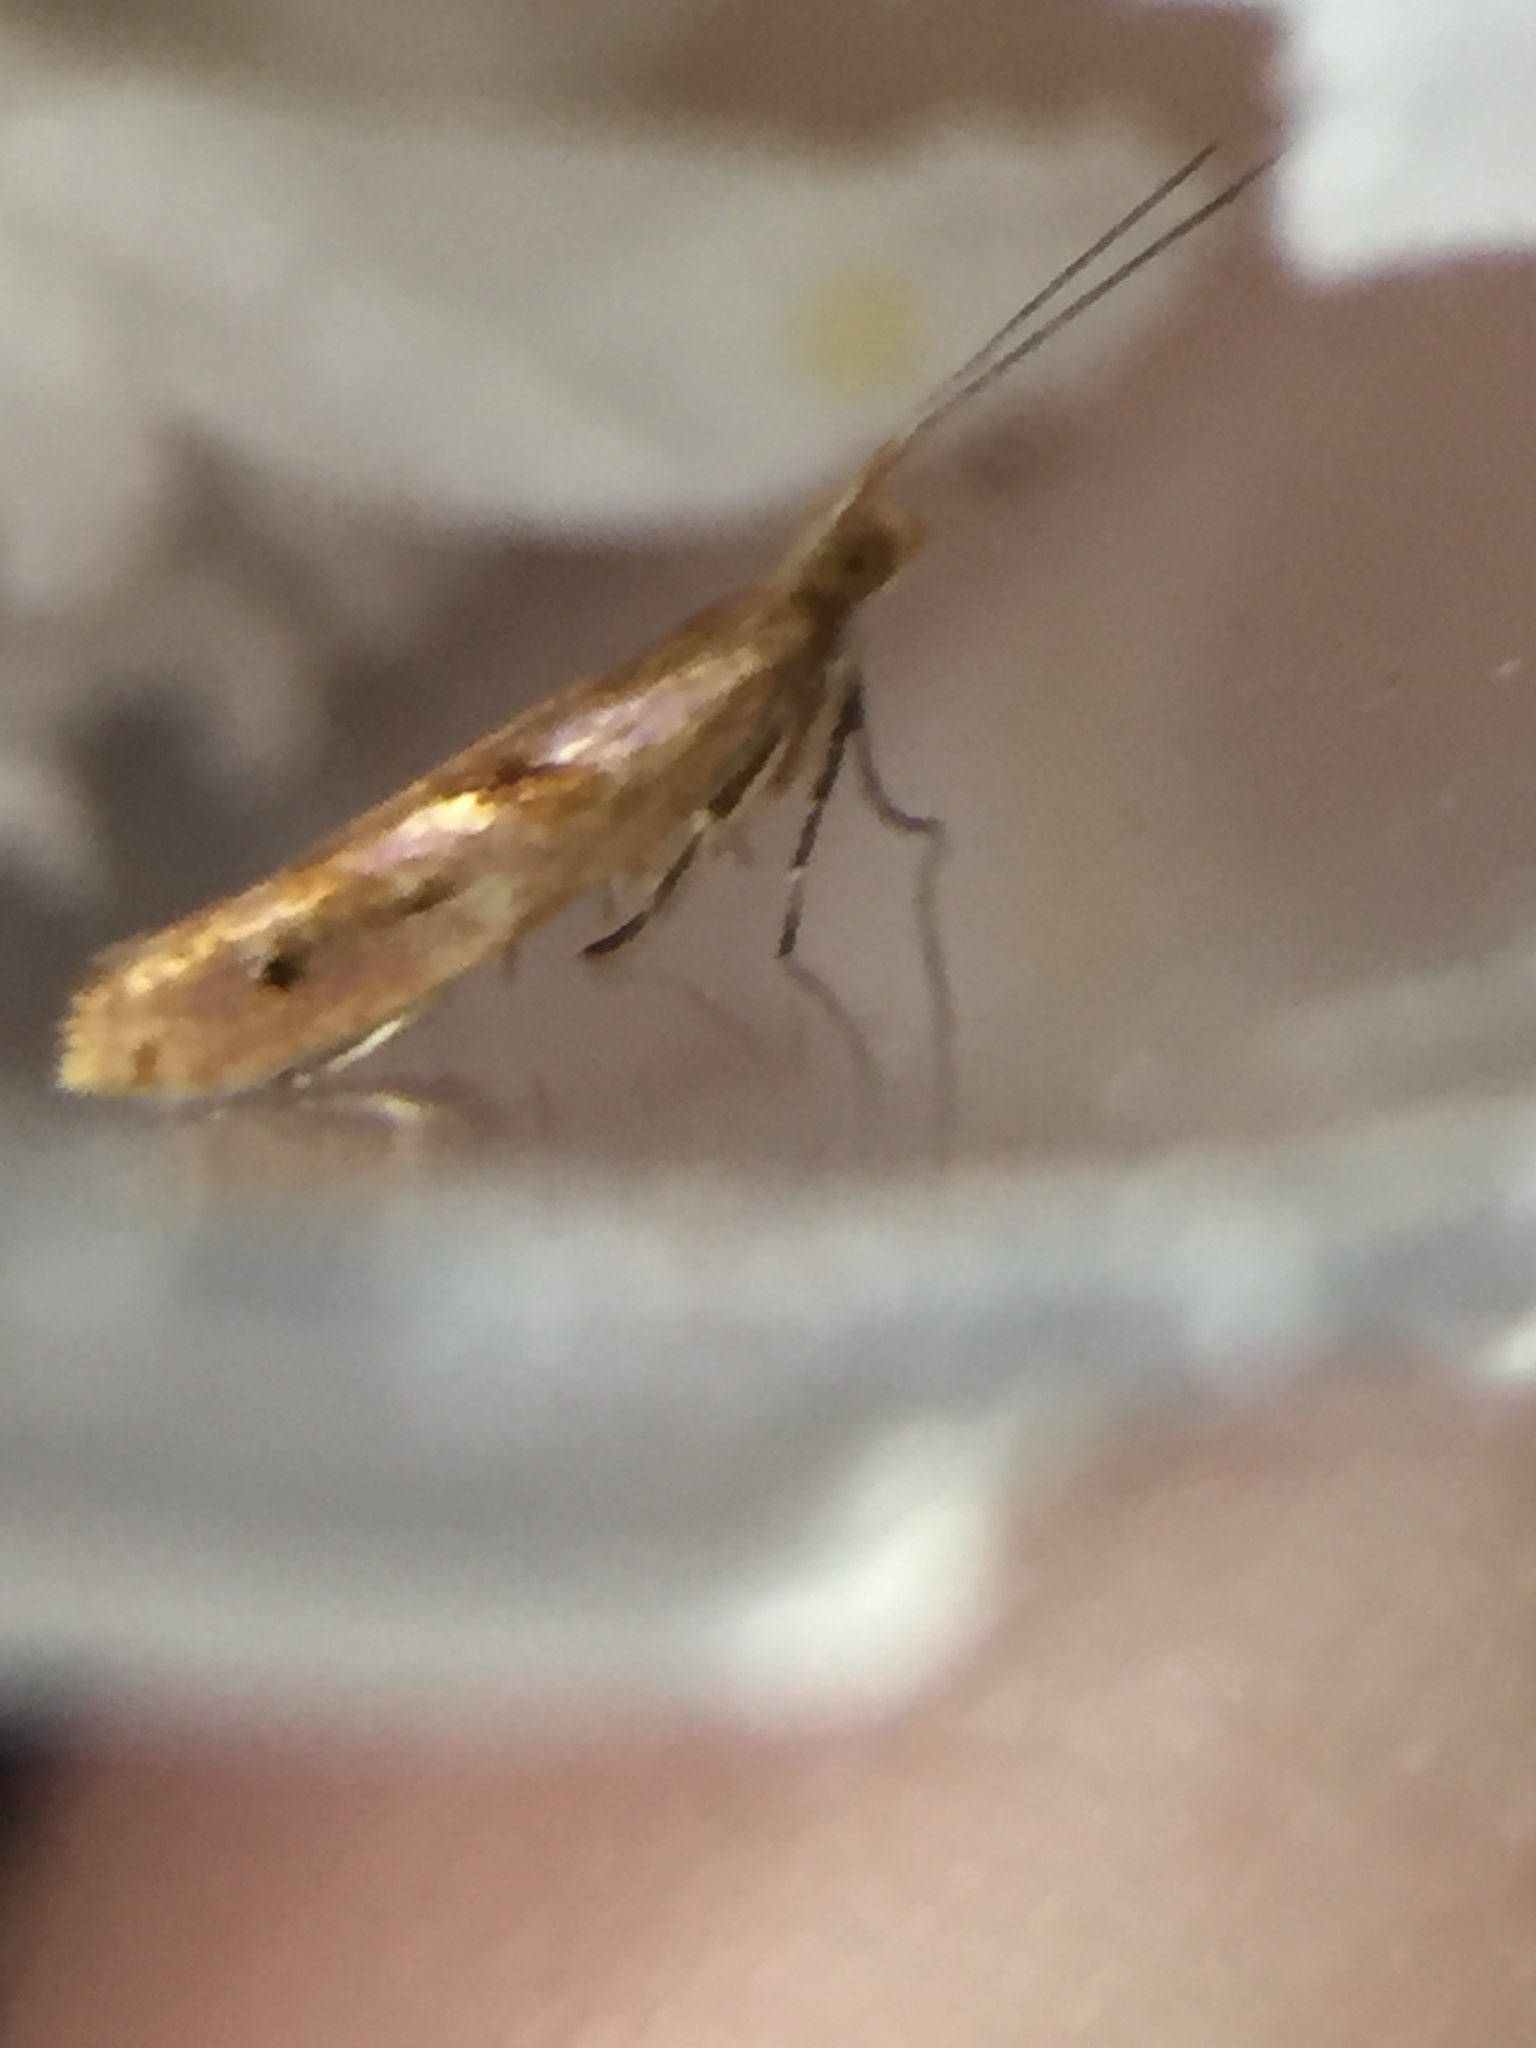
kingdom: Animalia
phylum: Arthropoda
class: Insecta
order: Lepidoptera
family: Glyphipterigidae
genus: Chrysorthenches
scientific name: Chrysorthenches virgata
